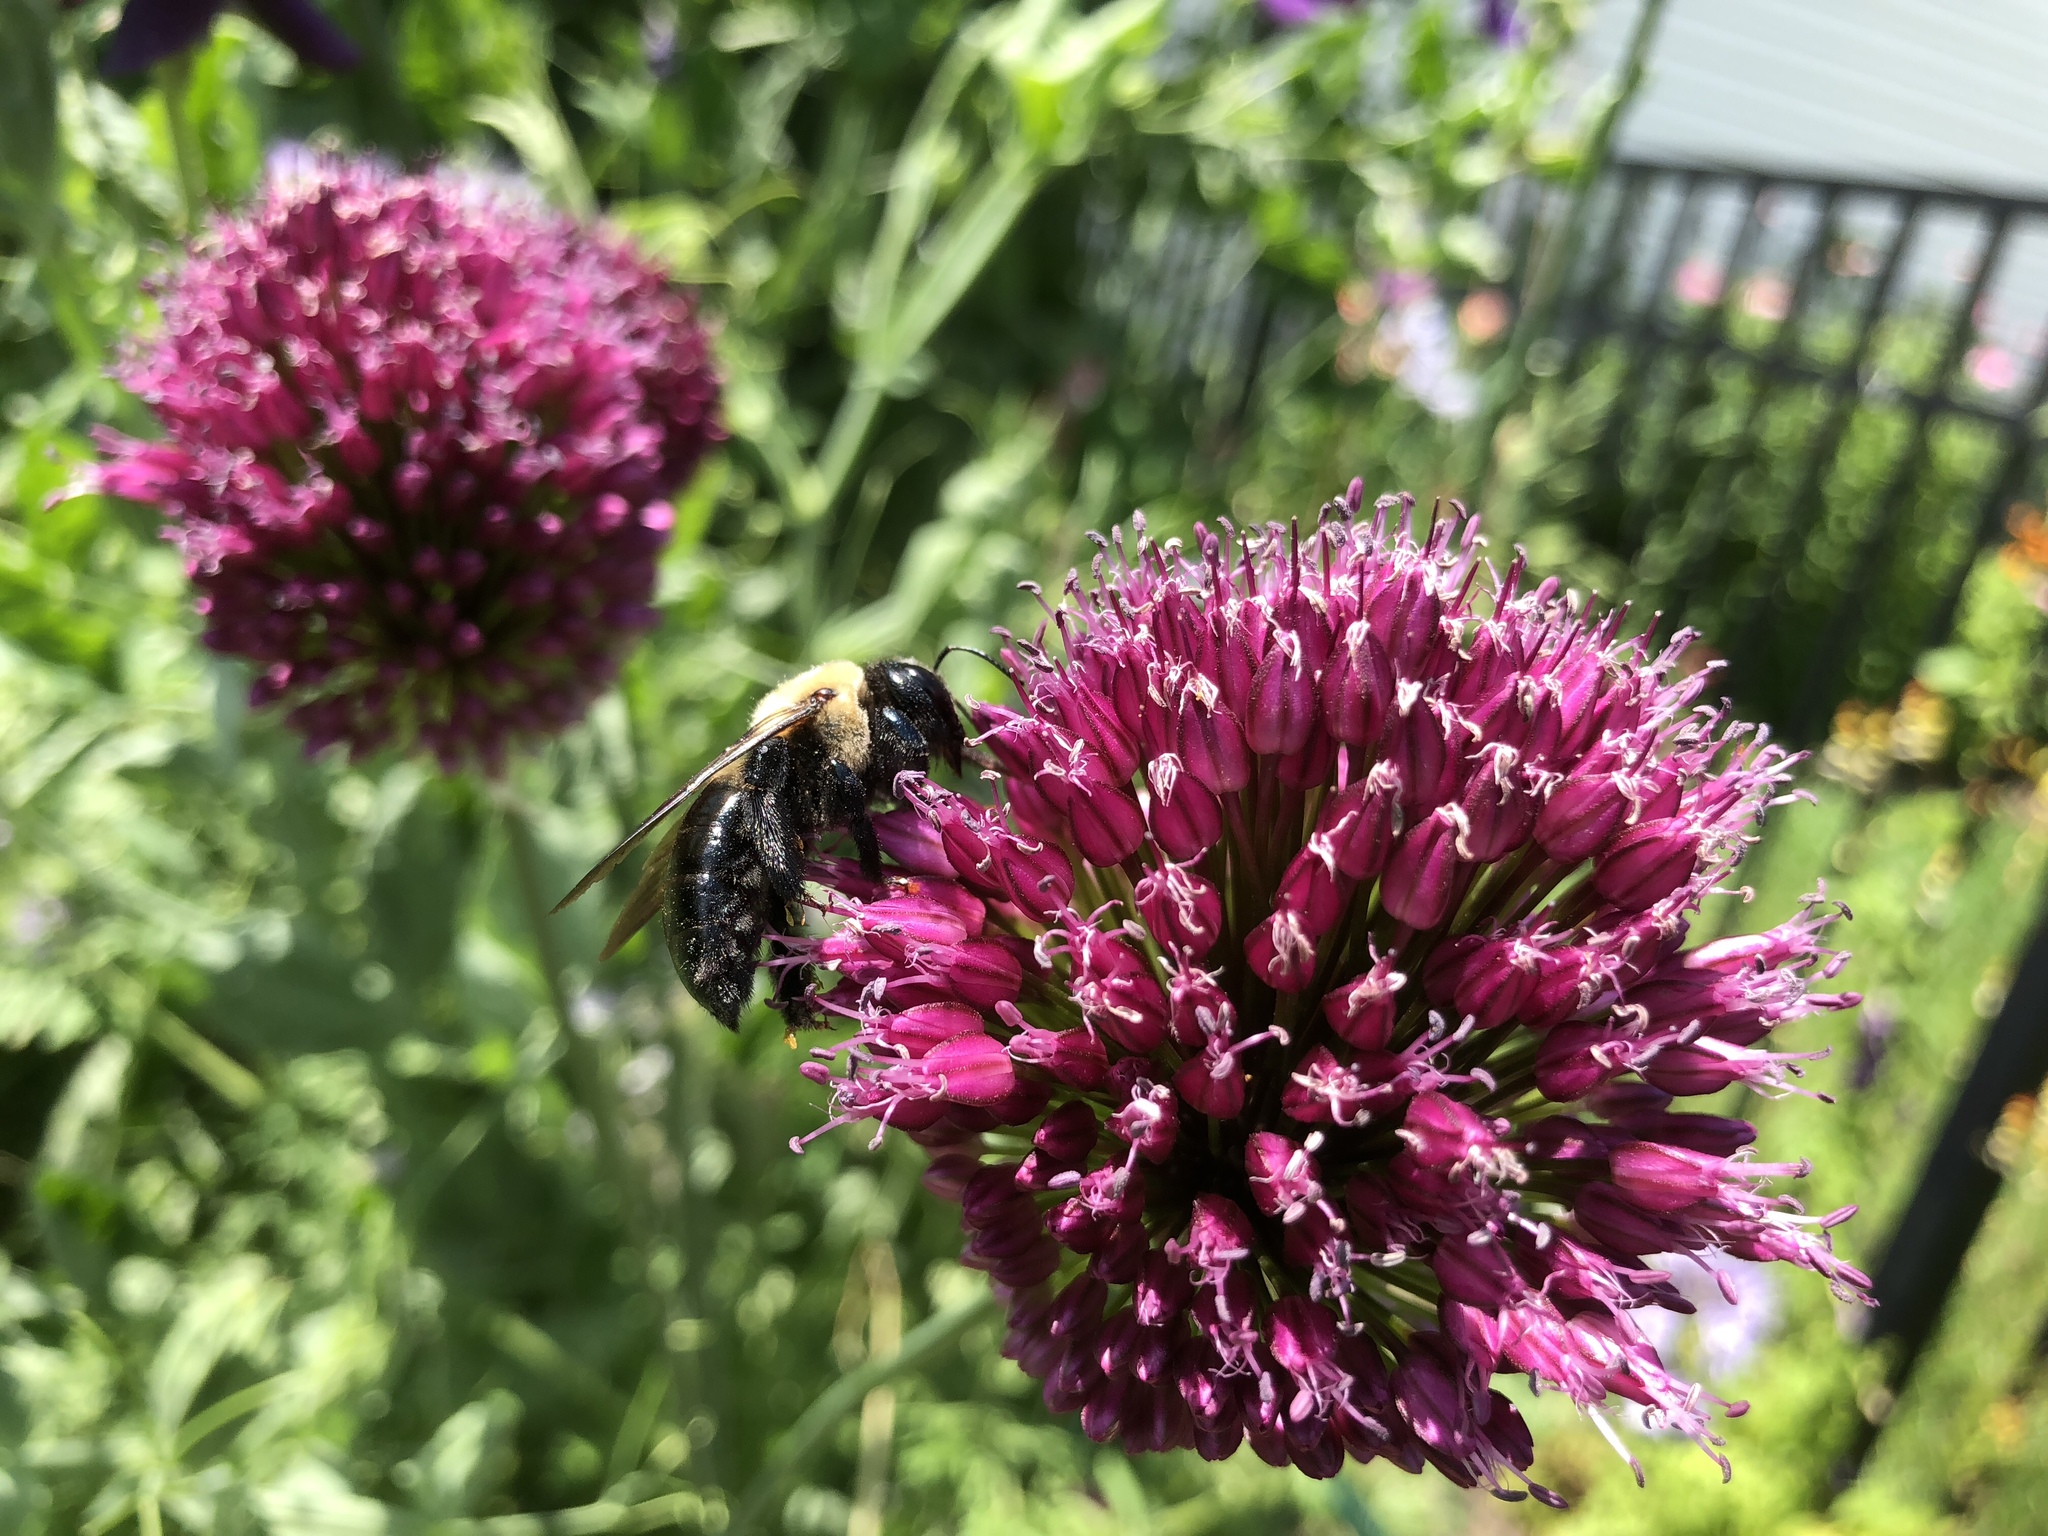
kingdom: Animalia
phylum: Arthropoda
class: Insecta
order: Hymenoptera
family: Apidae
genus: Xylocopa
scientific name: Xylocopa virginica
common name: Carpenter bee
